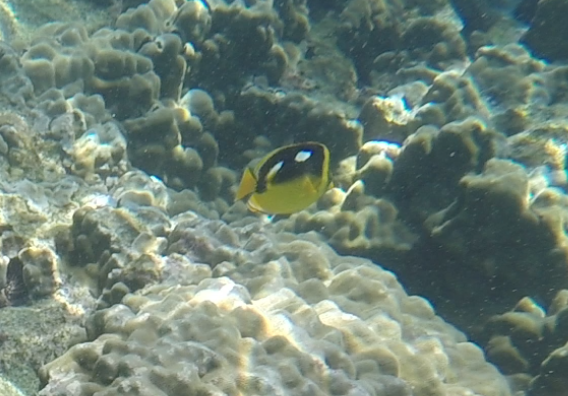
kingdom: Animalia
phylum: Chordata
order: Perciformes
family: Chaetodontidae
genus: Chaetodon
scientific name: Chaetodon quadrimaculatus
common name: Fourspot butterflyfish
